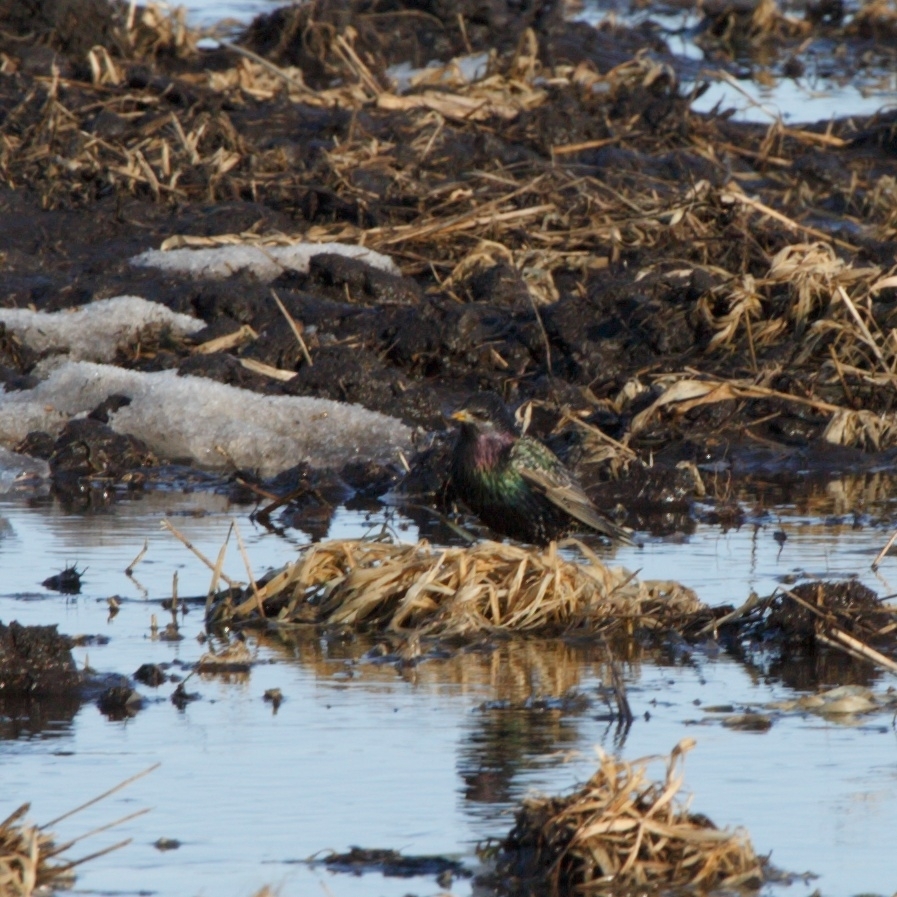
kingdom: Animalia
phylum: Chordata
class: Aves
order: Passeriformes
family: Sturnidae
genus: Sturnus
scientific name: Sturnus vulgaris
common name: Common starling
